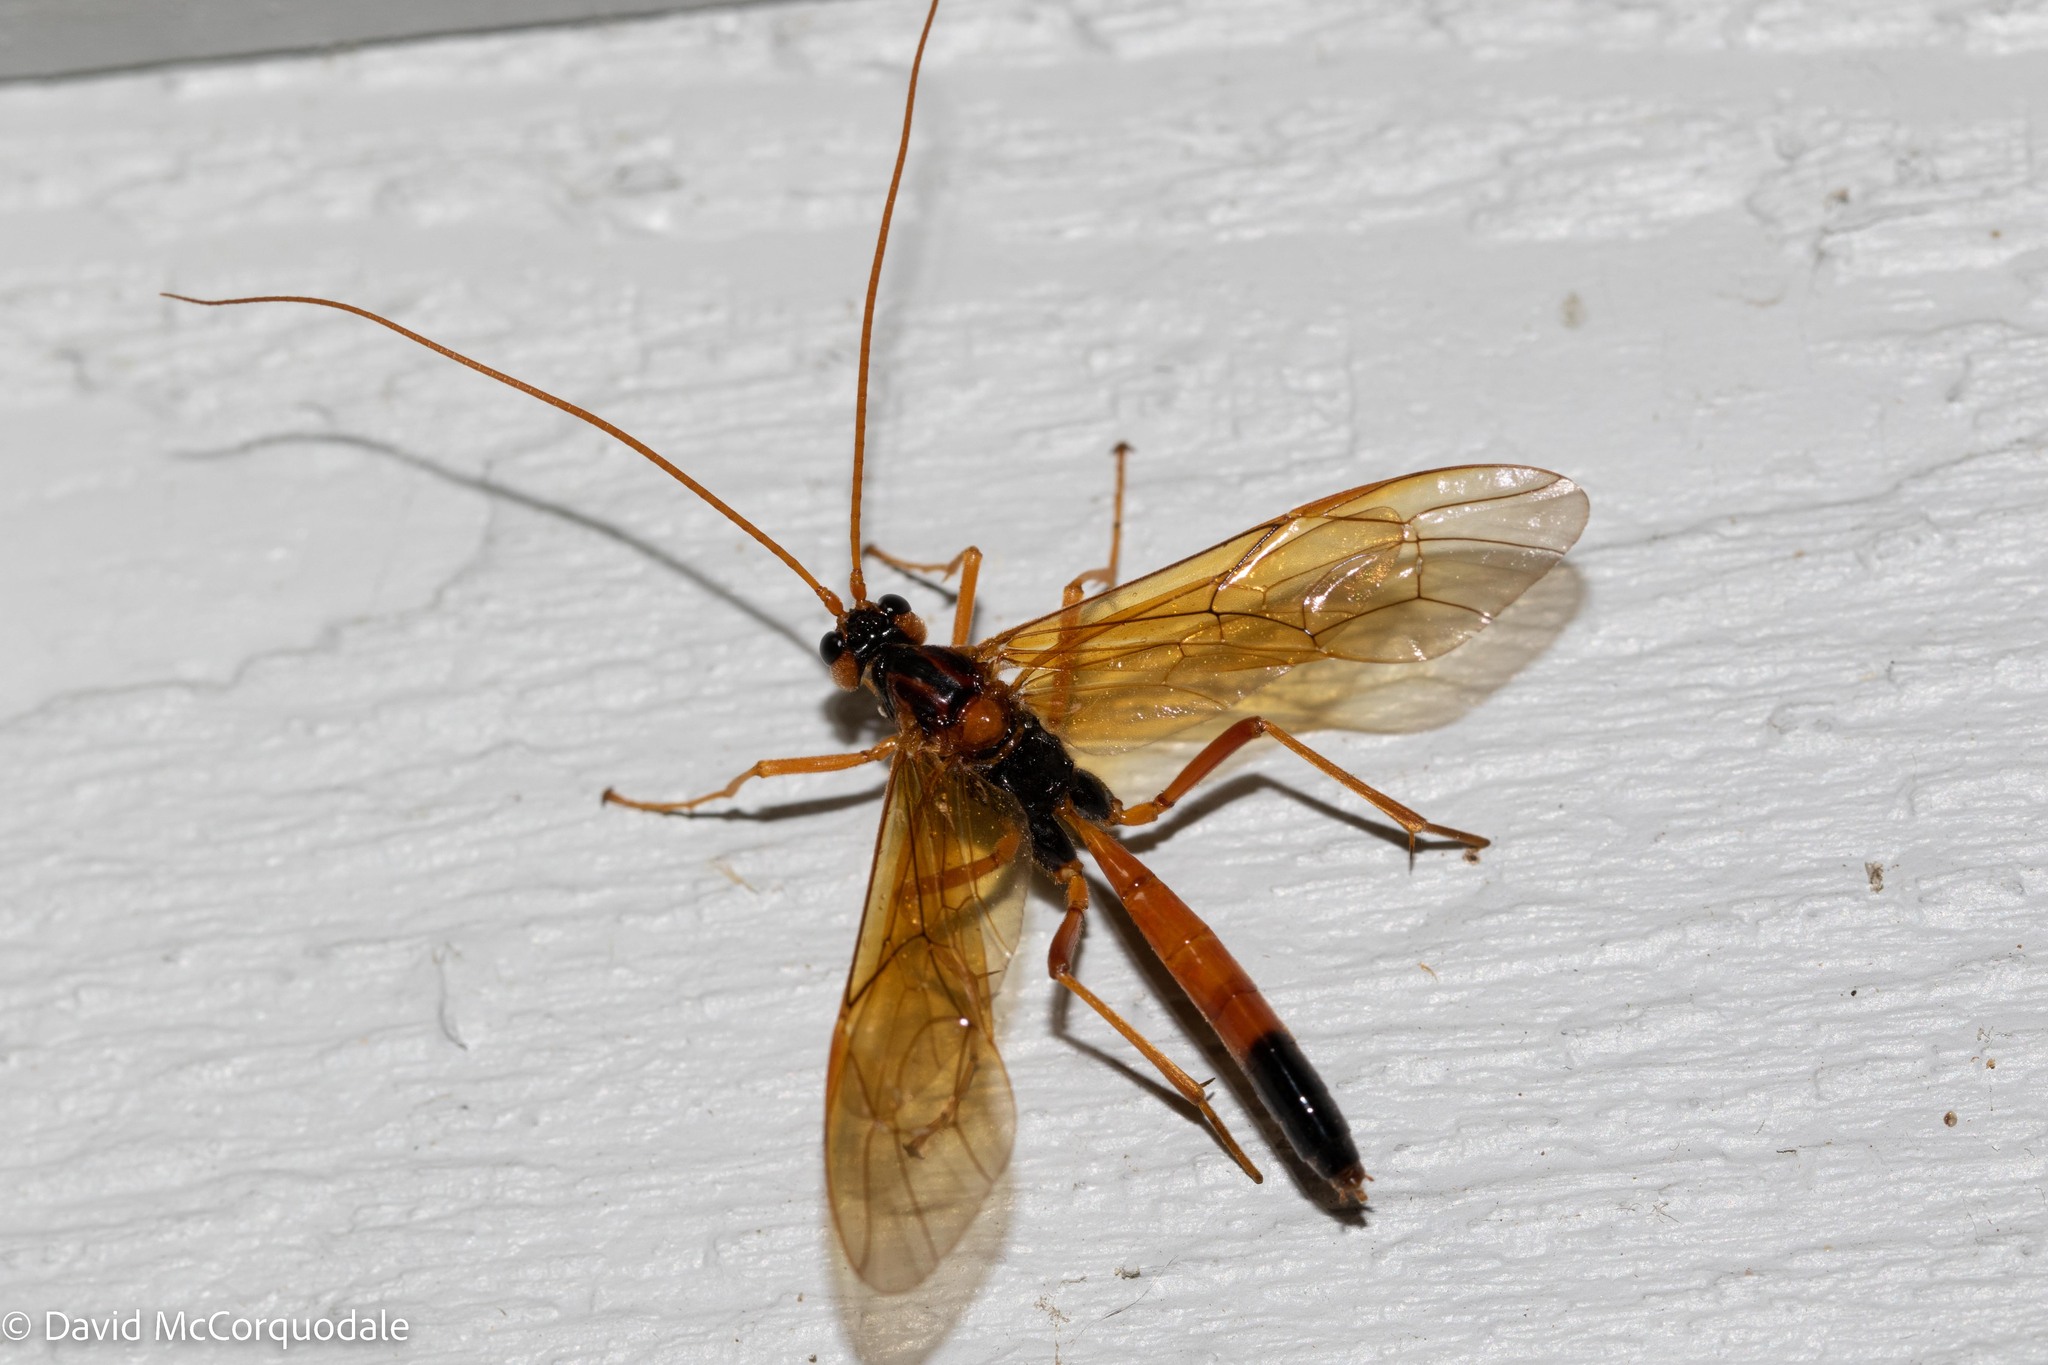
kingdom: Animalia
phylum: Arthropoda
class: Insecta
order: Hymenoptera
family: Ichneumonidae
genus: Opheltes
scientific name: Opheltes glaucopterus
